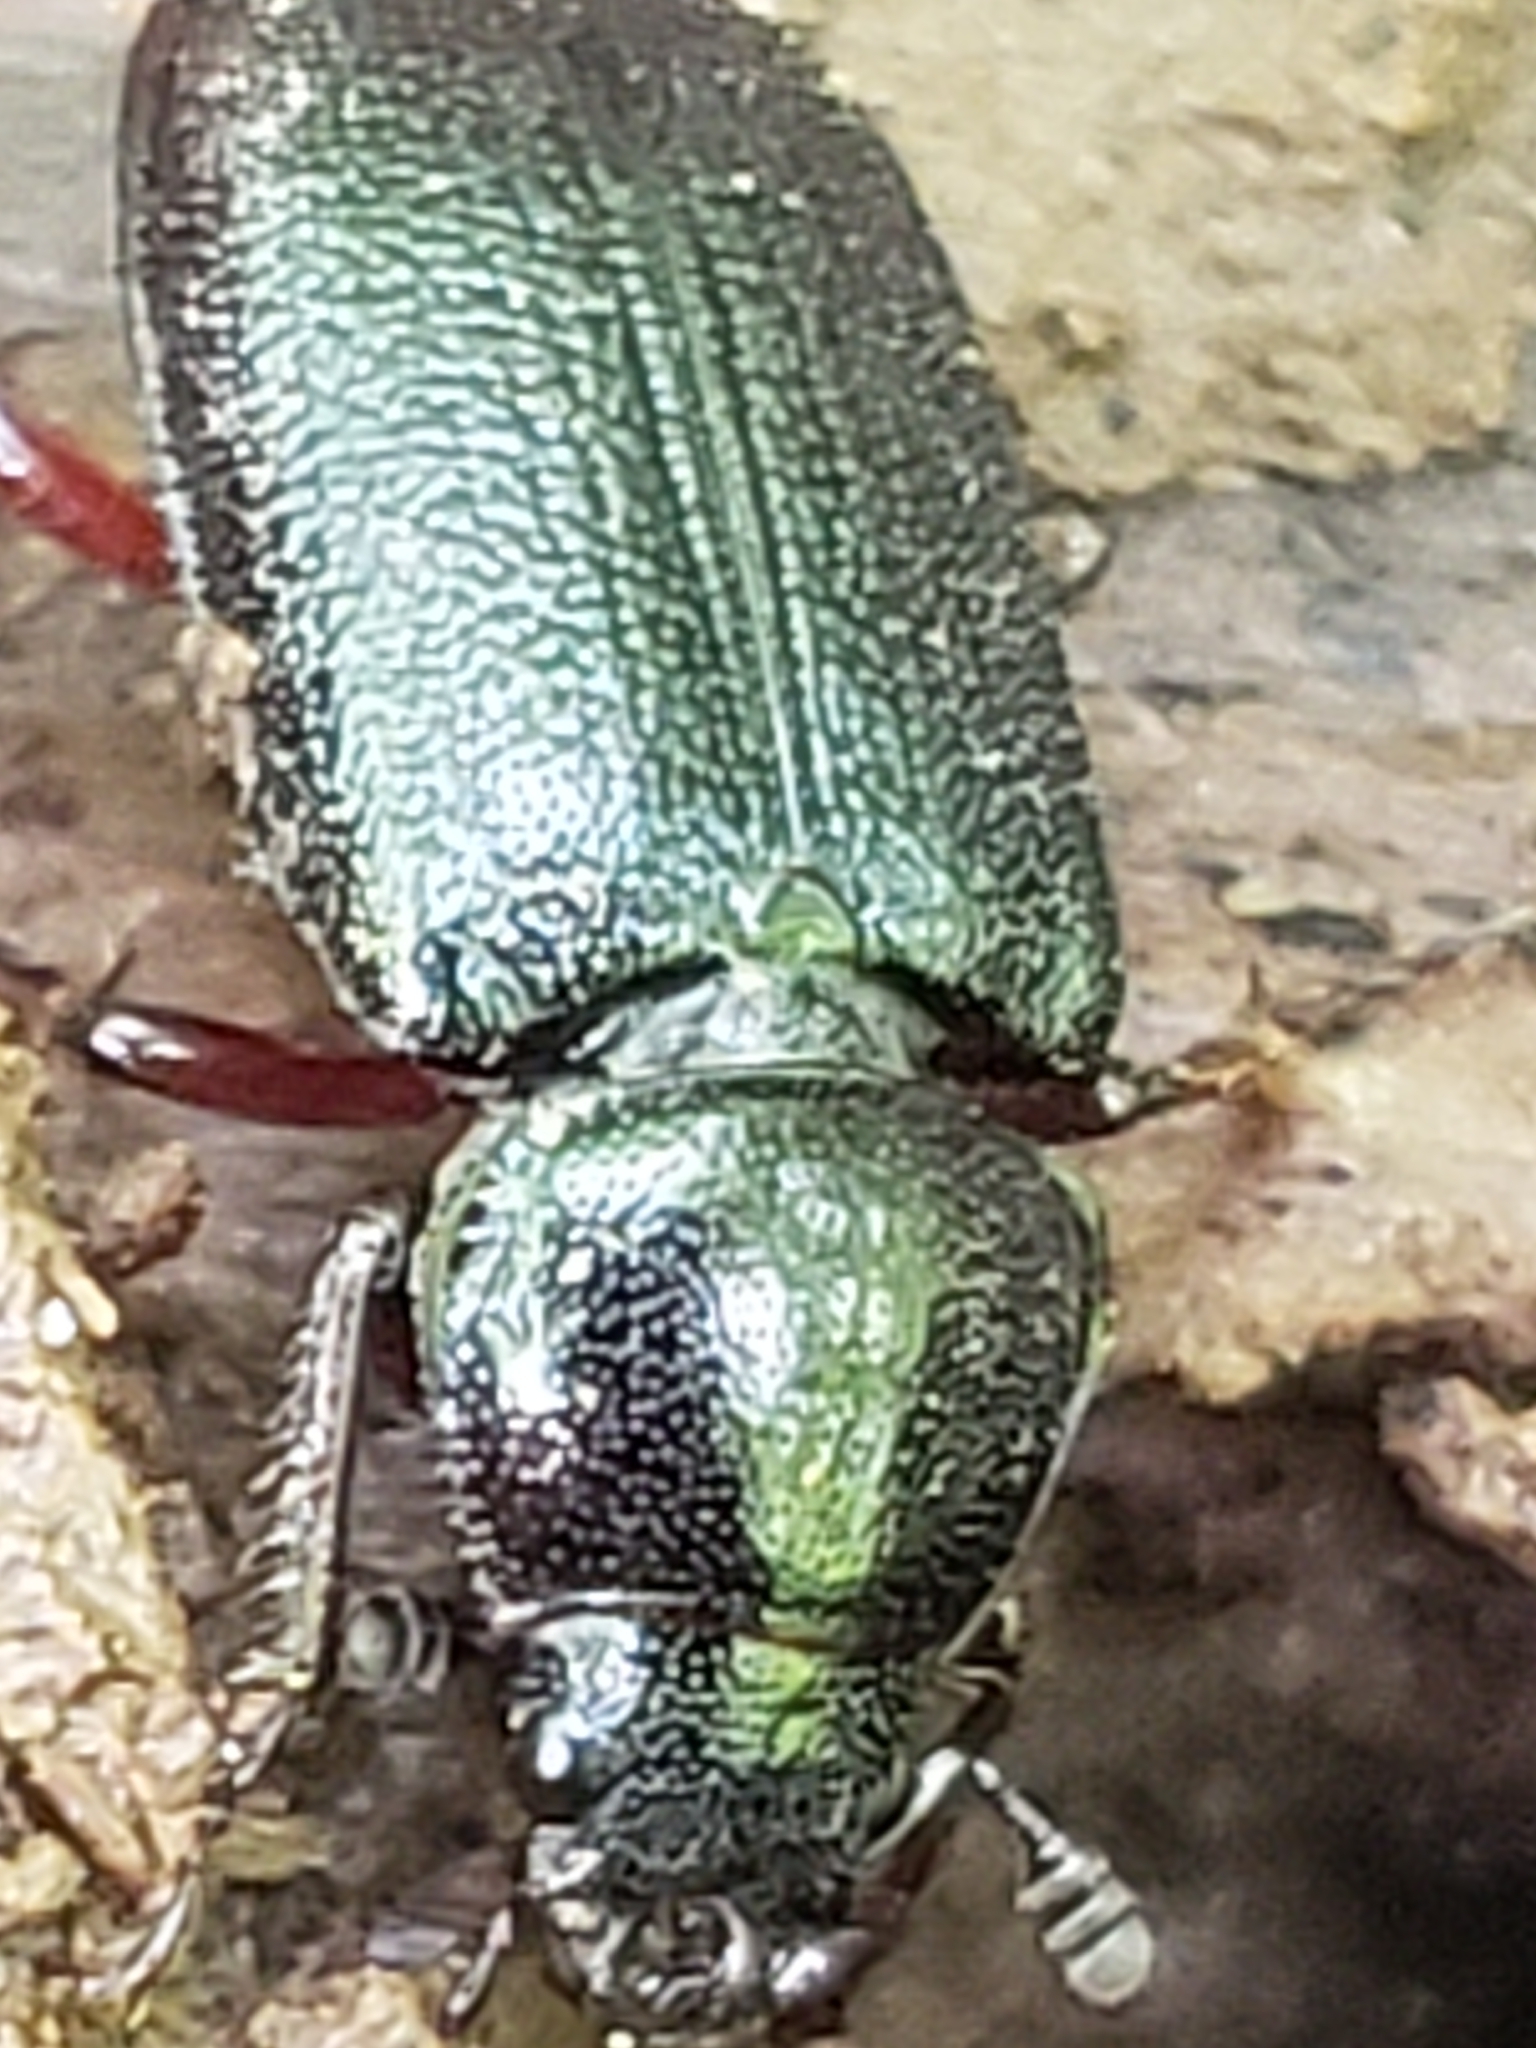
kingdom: Animalia
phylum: Arthropoda
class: Insecta
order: Coleoptera
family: Lucanidae
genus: Platycerus
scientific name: Platycerus quercus
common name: Oak stag beetle
